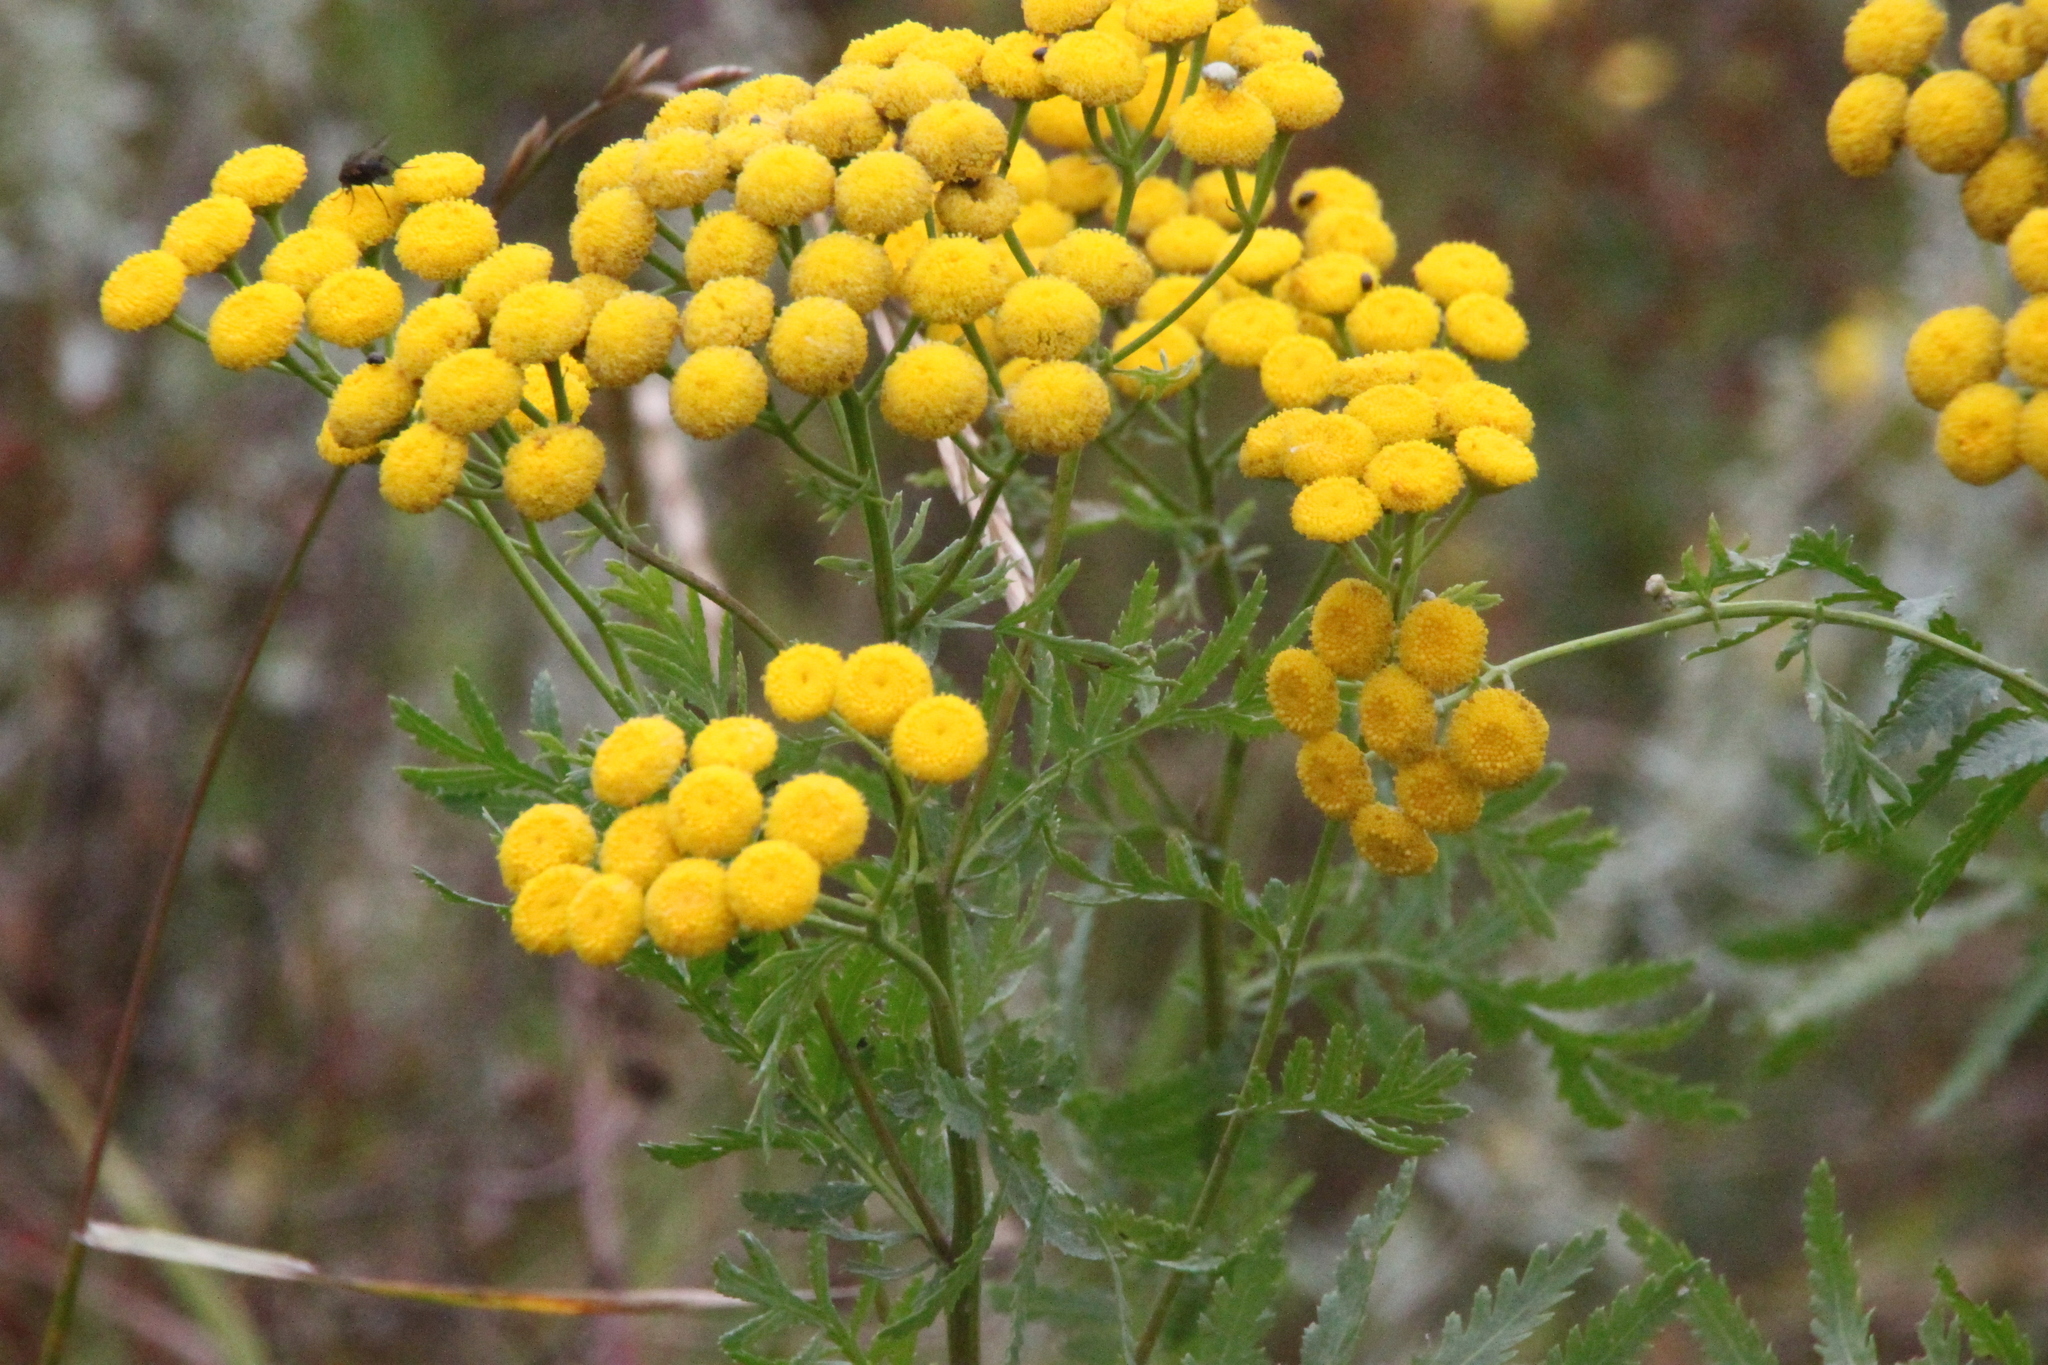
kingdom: Plantae
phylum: Tracheophyta
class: Magnoliopsida
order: Asterales
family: Asteraceae
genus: Tanacetum
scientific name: Tanacetum vulgare
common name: Common tansy
